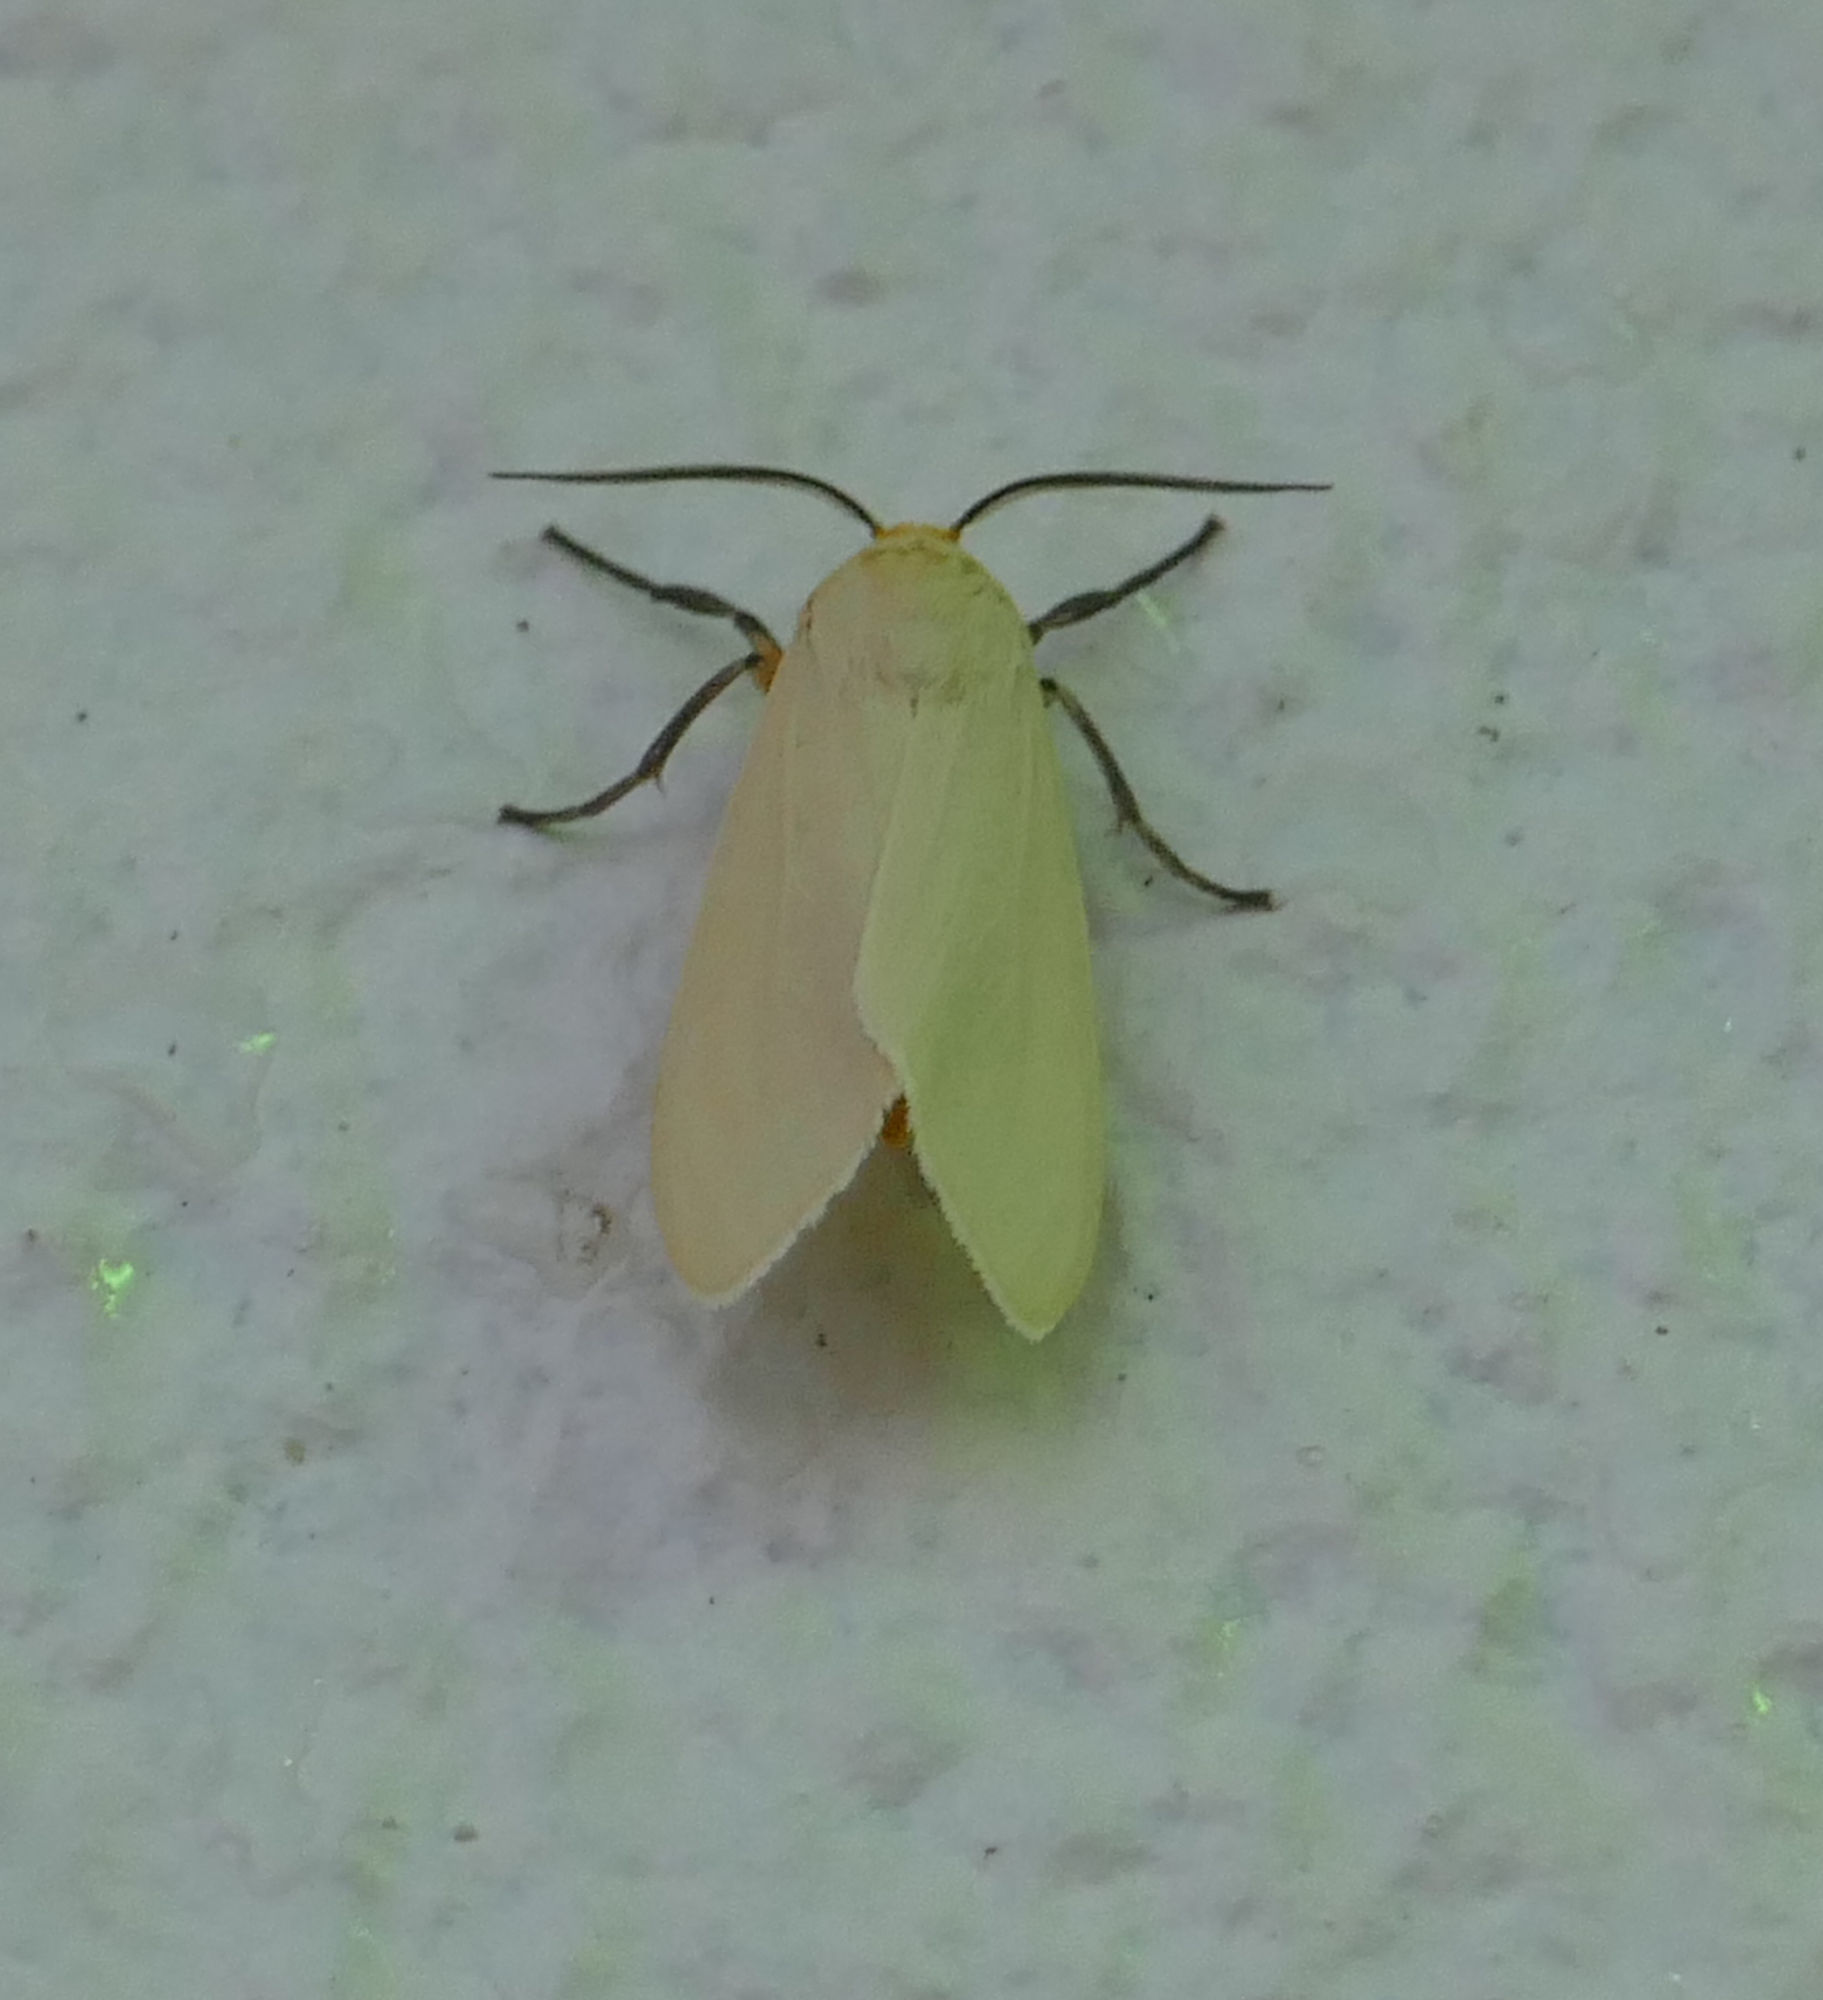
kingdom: Animalia
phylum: Arthropoda
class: Insecta
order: Lepidoptera
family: Erebidae
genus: Pareuchaetes
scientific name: Pareuchaetes insulata
